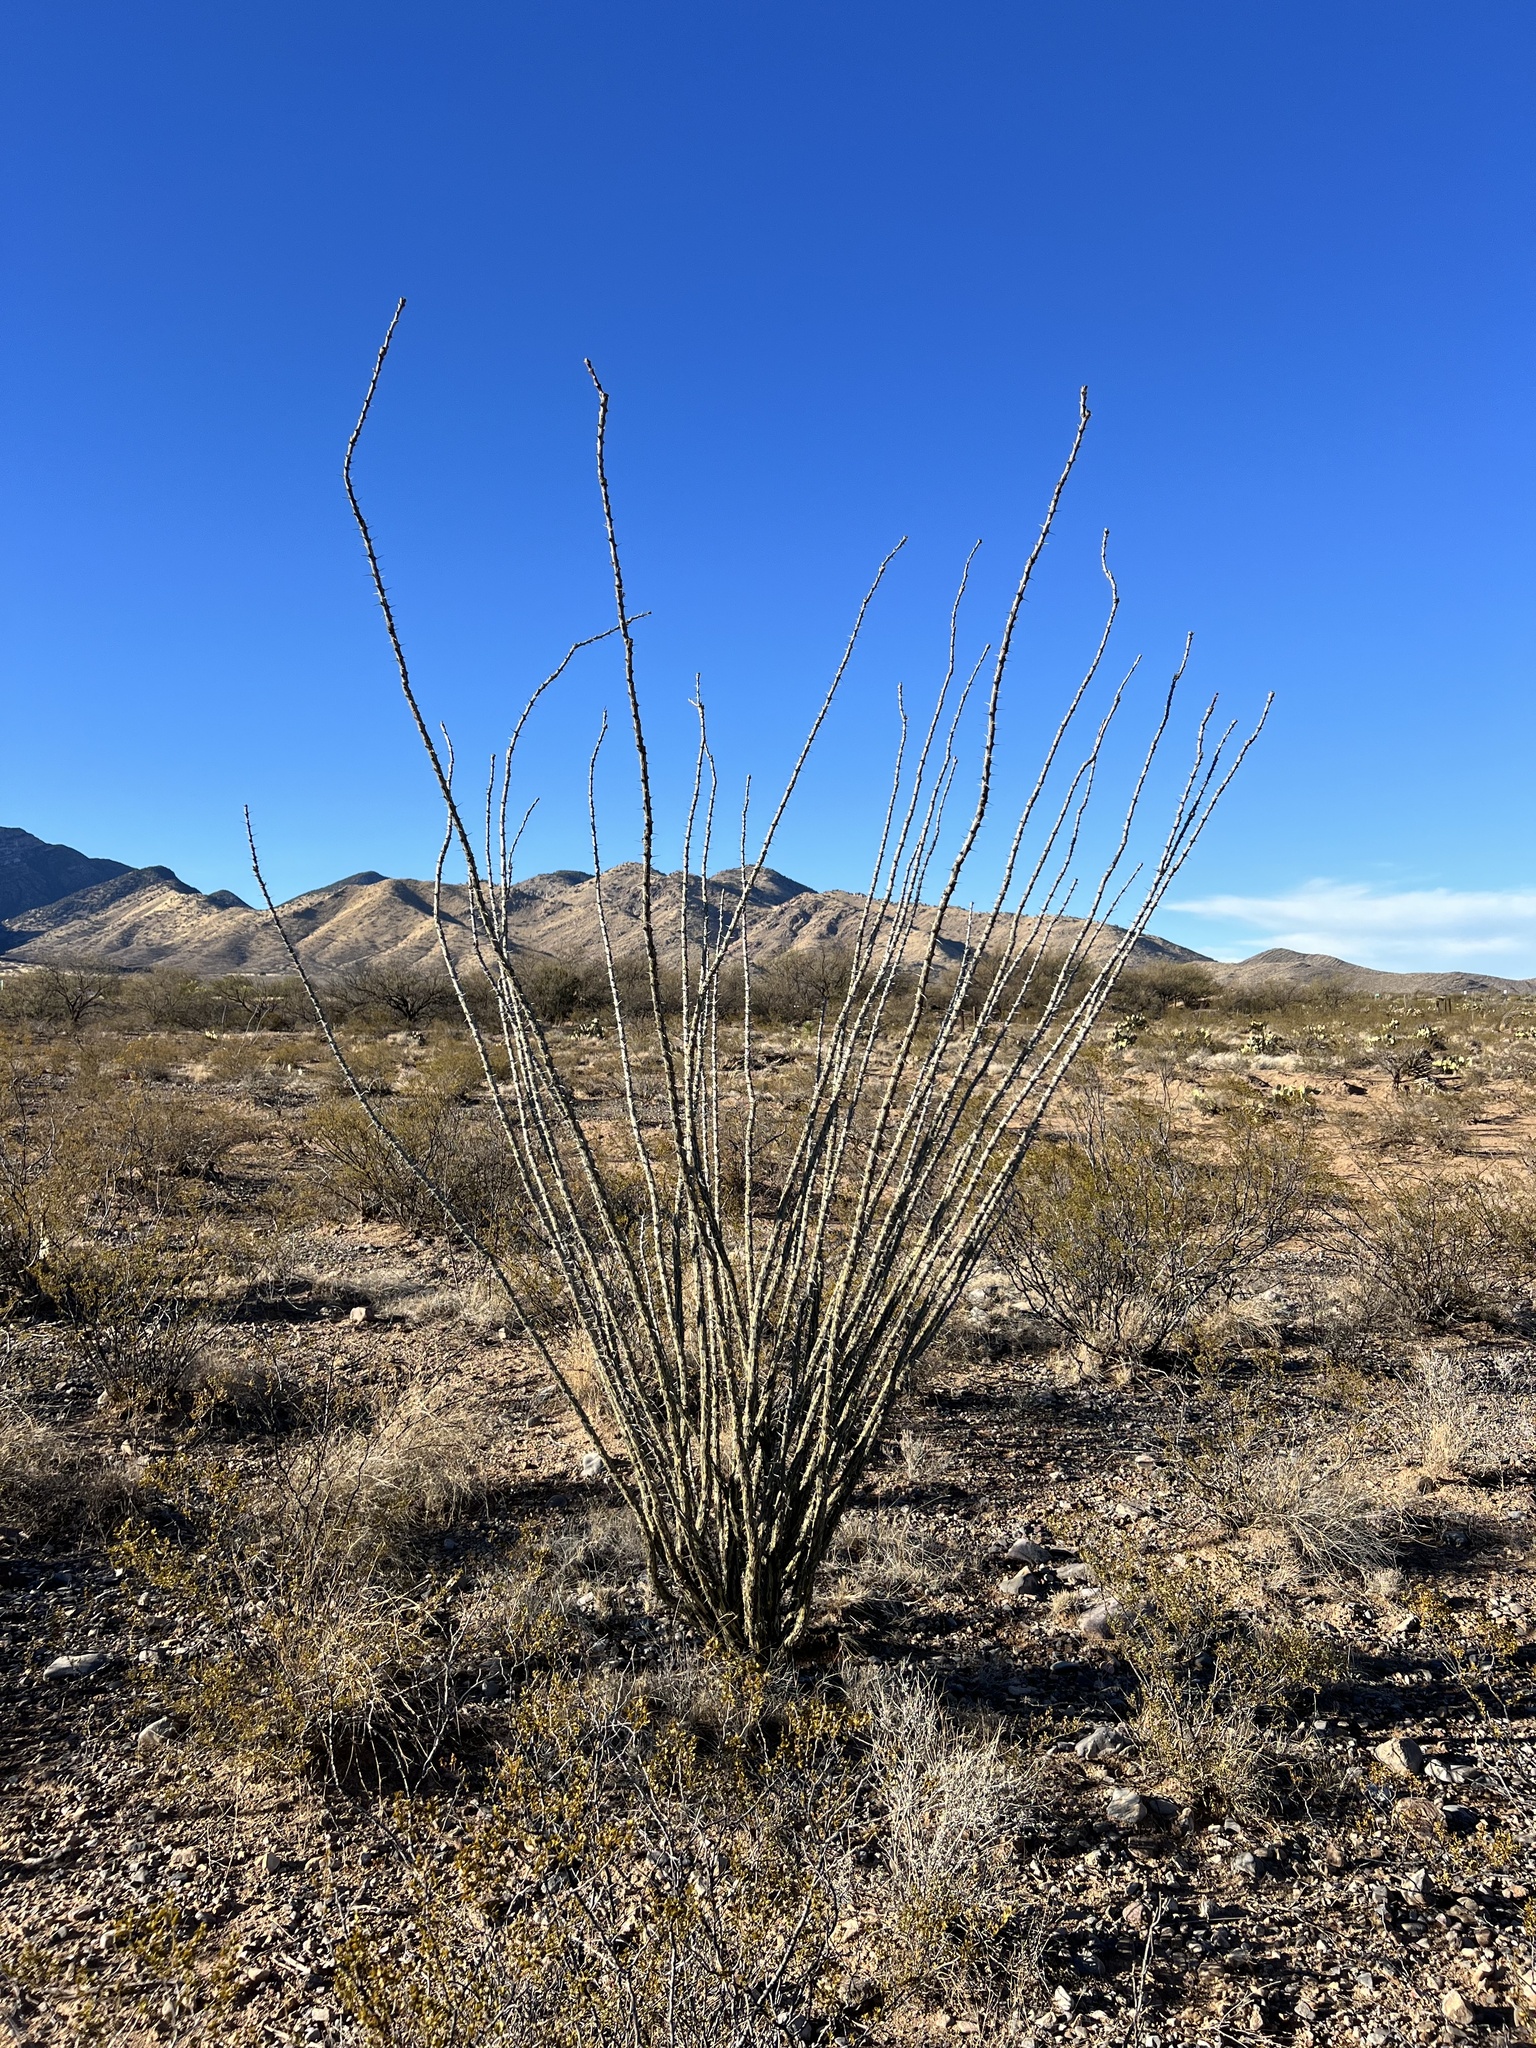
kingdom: Plantae
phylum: Tracheophyta
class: Magnoliopsida
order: Ericales
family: Fouquieriaceae
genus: Fouquieria
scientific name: Fouquieria splendens
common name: Vine-cactus
